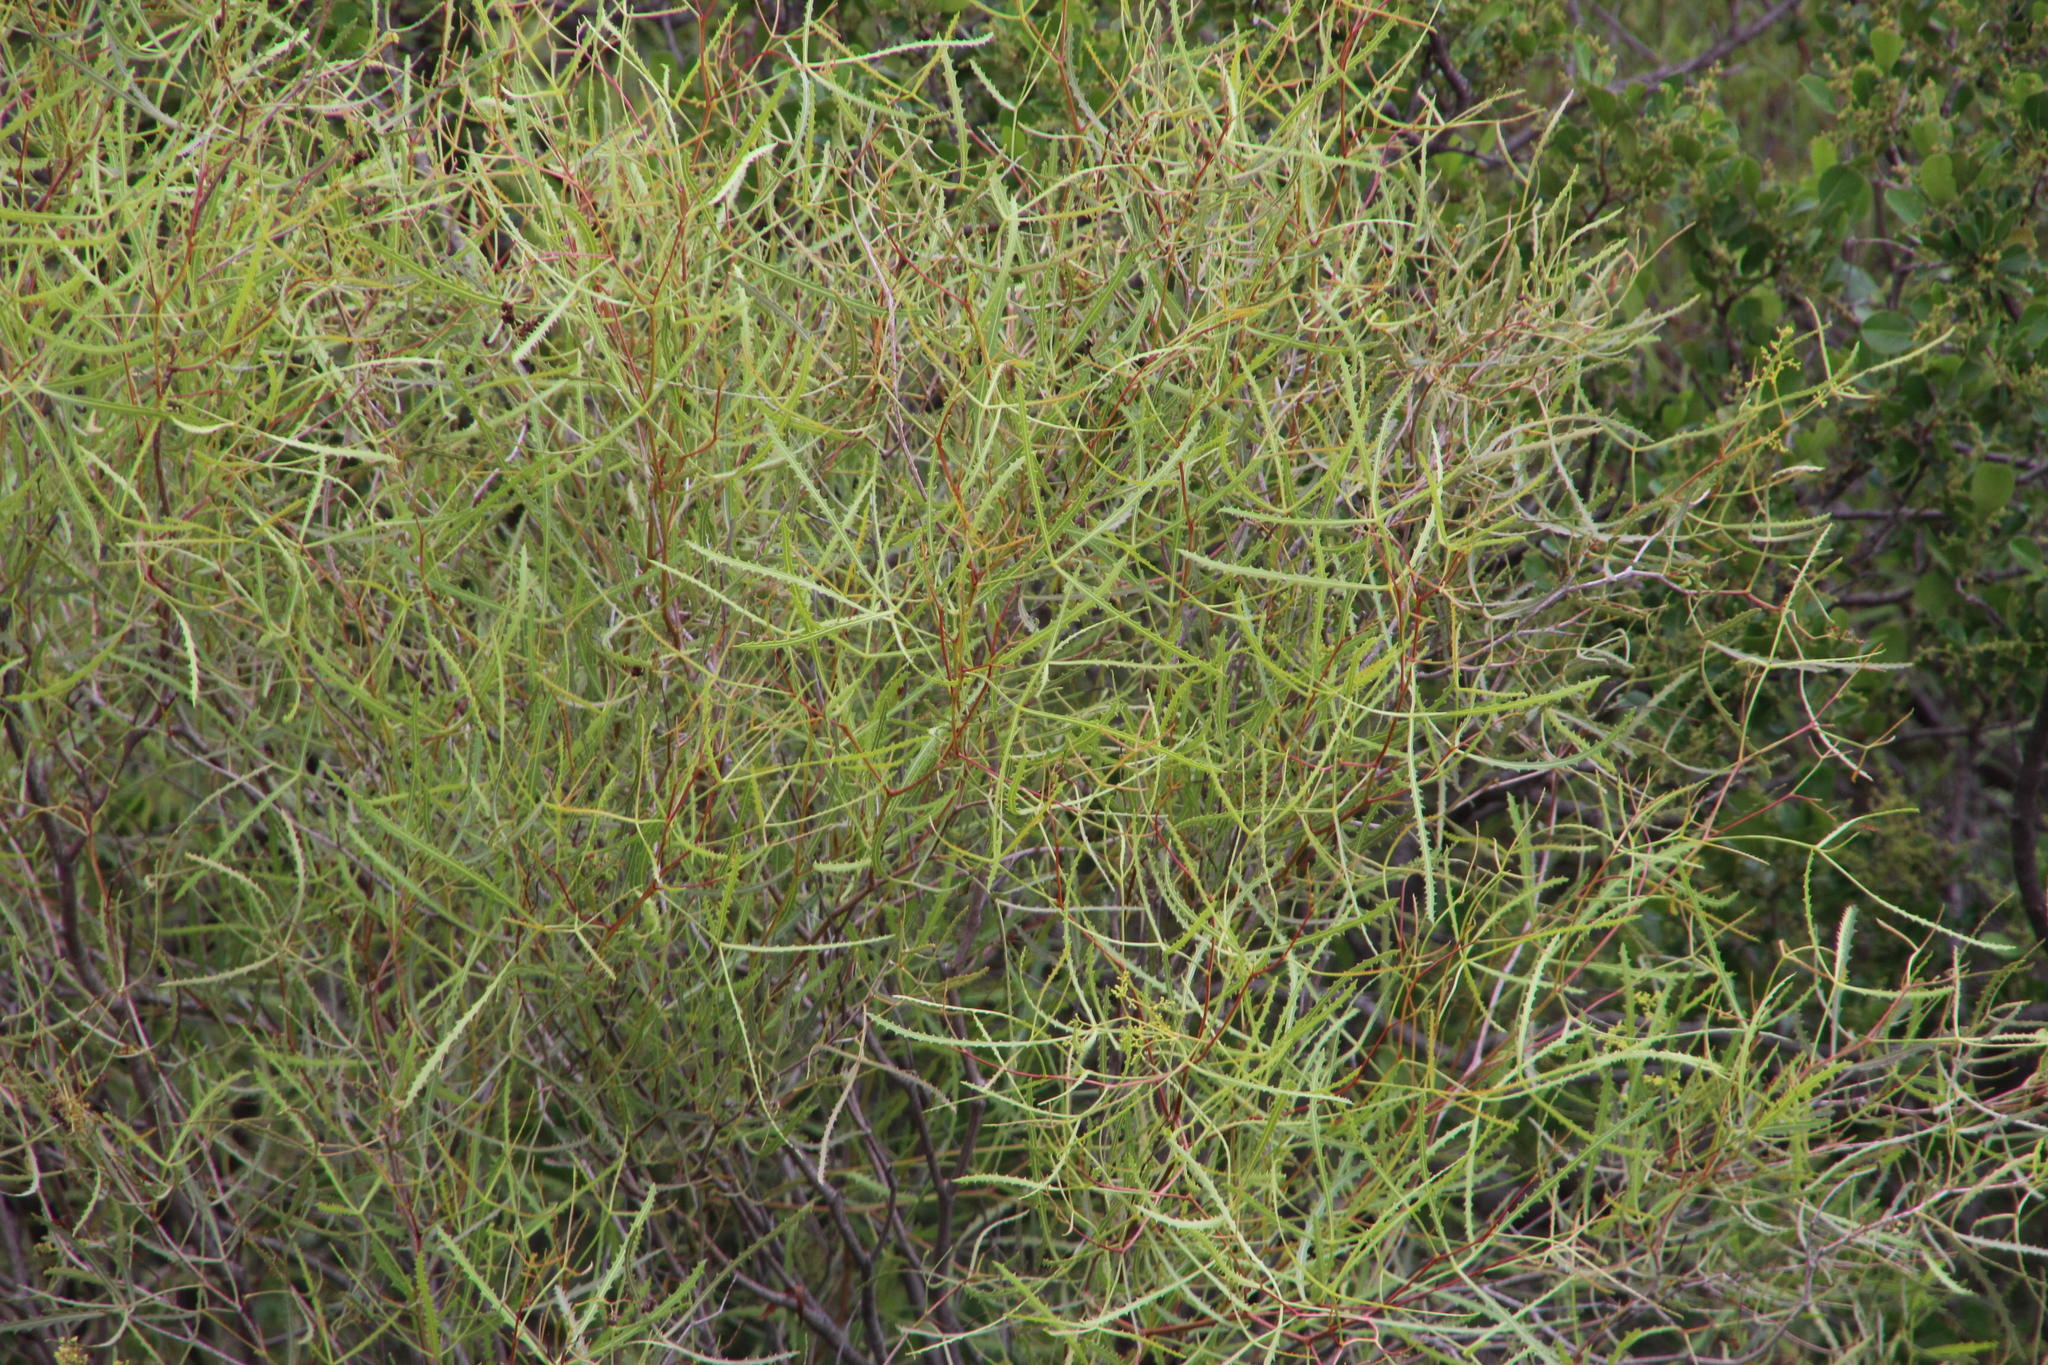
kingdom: Plantae
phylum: Tracheophyta
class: Magnoliopsida
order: Sapindales
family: Anacardiaceae
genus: Searsia
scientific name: Searsia erosa
